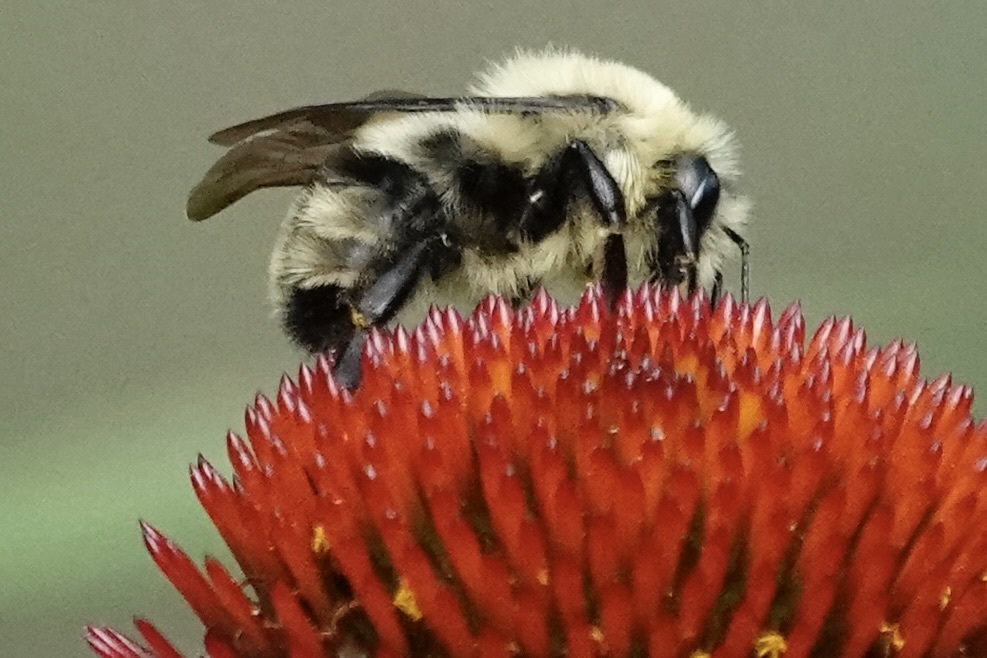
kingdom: Animalia
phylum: Arthropoda
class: Insecta
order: Hymenoptera
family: Apidae
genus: Bombus
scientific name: Bombus bimaculatus
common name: Two-spotted bumble bee
